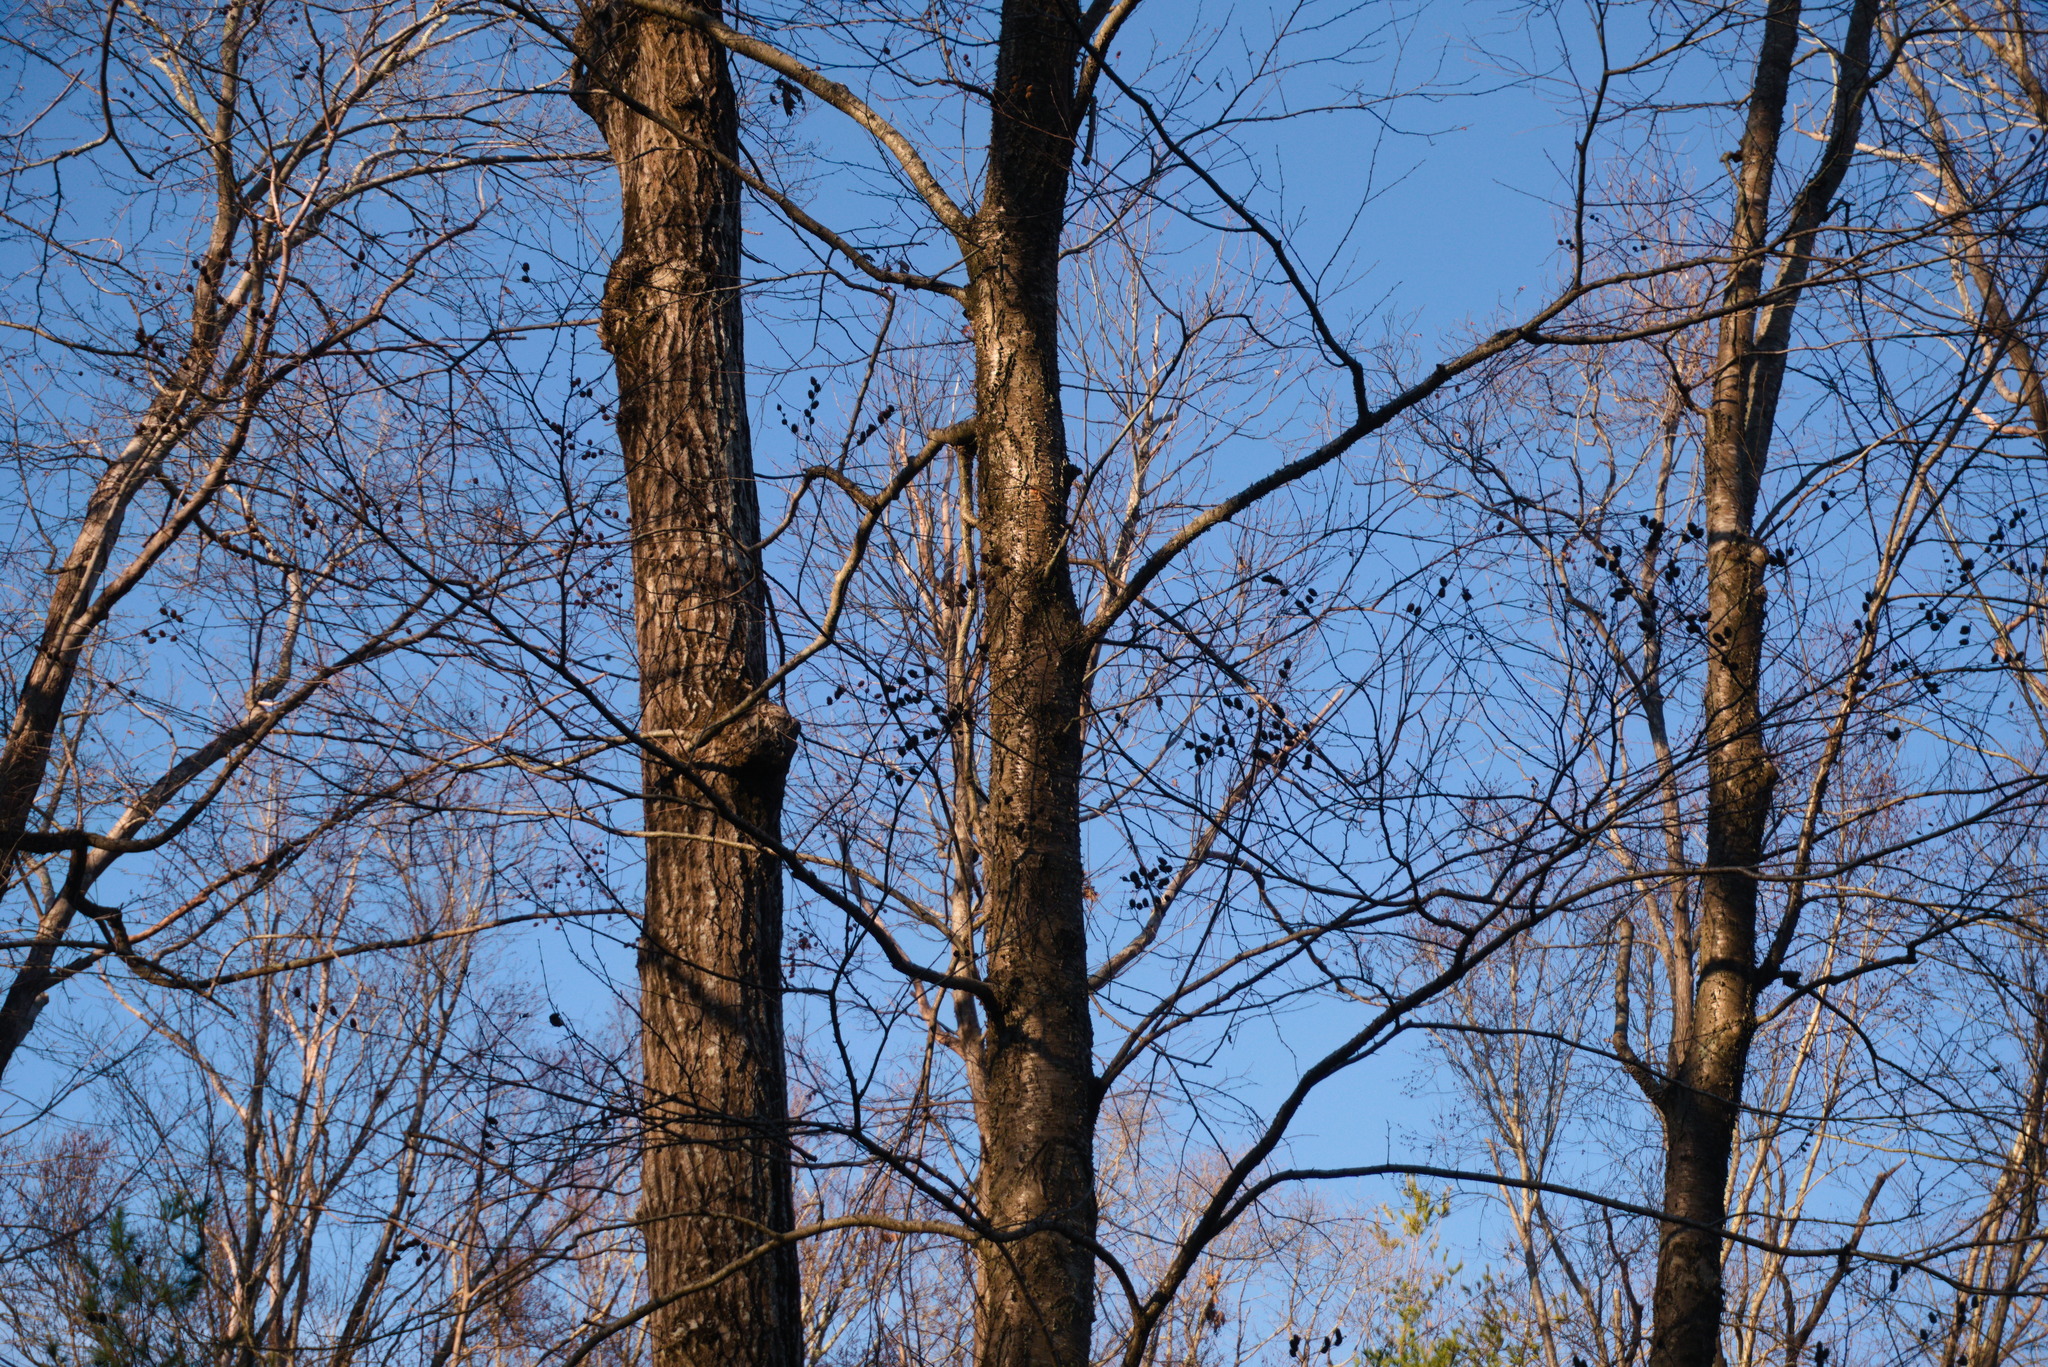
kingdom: Plantae
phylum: Tracheophyta
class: Magnoliopsida
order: Fagales
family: Betulaceae
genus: Betula
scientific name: Betula alleghaniensis
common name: Yellow birch
